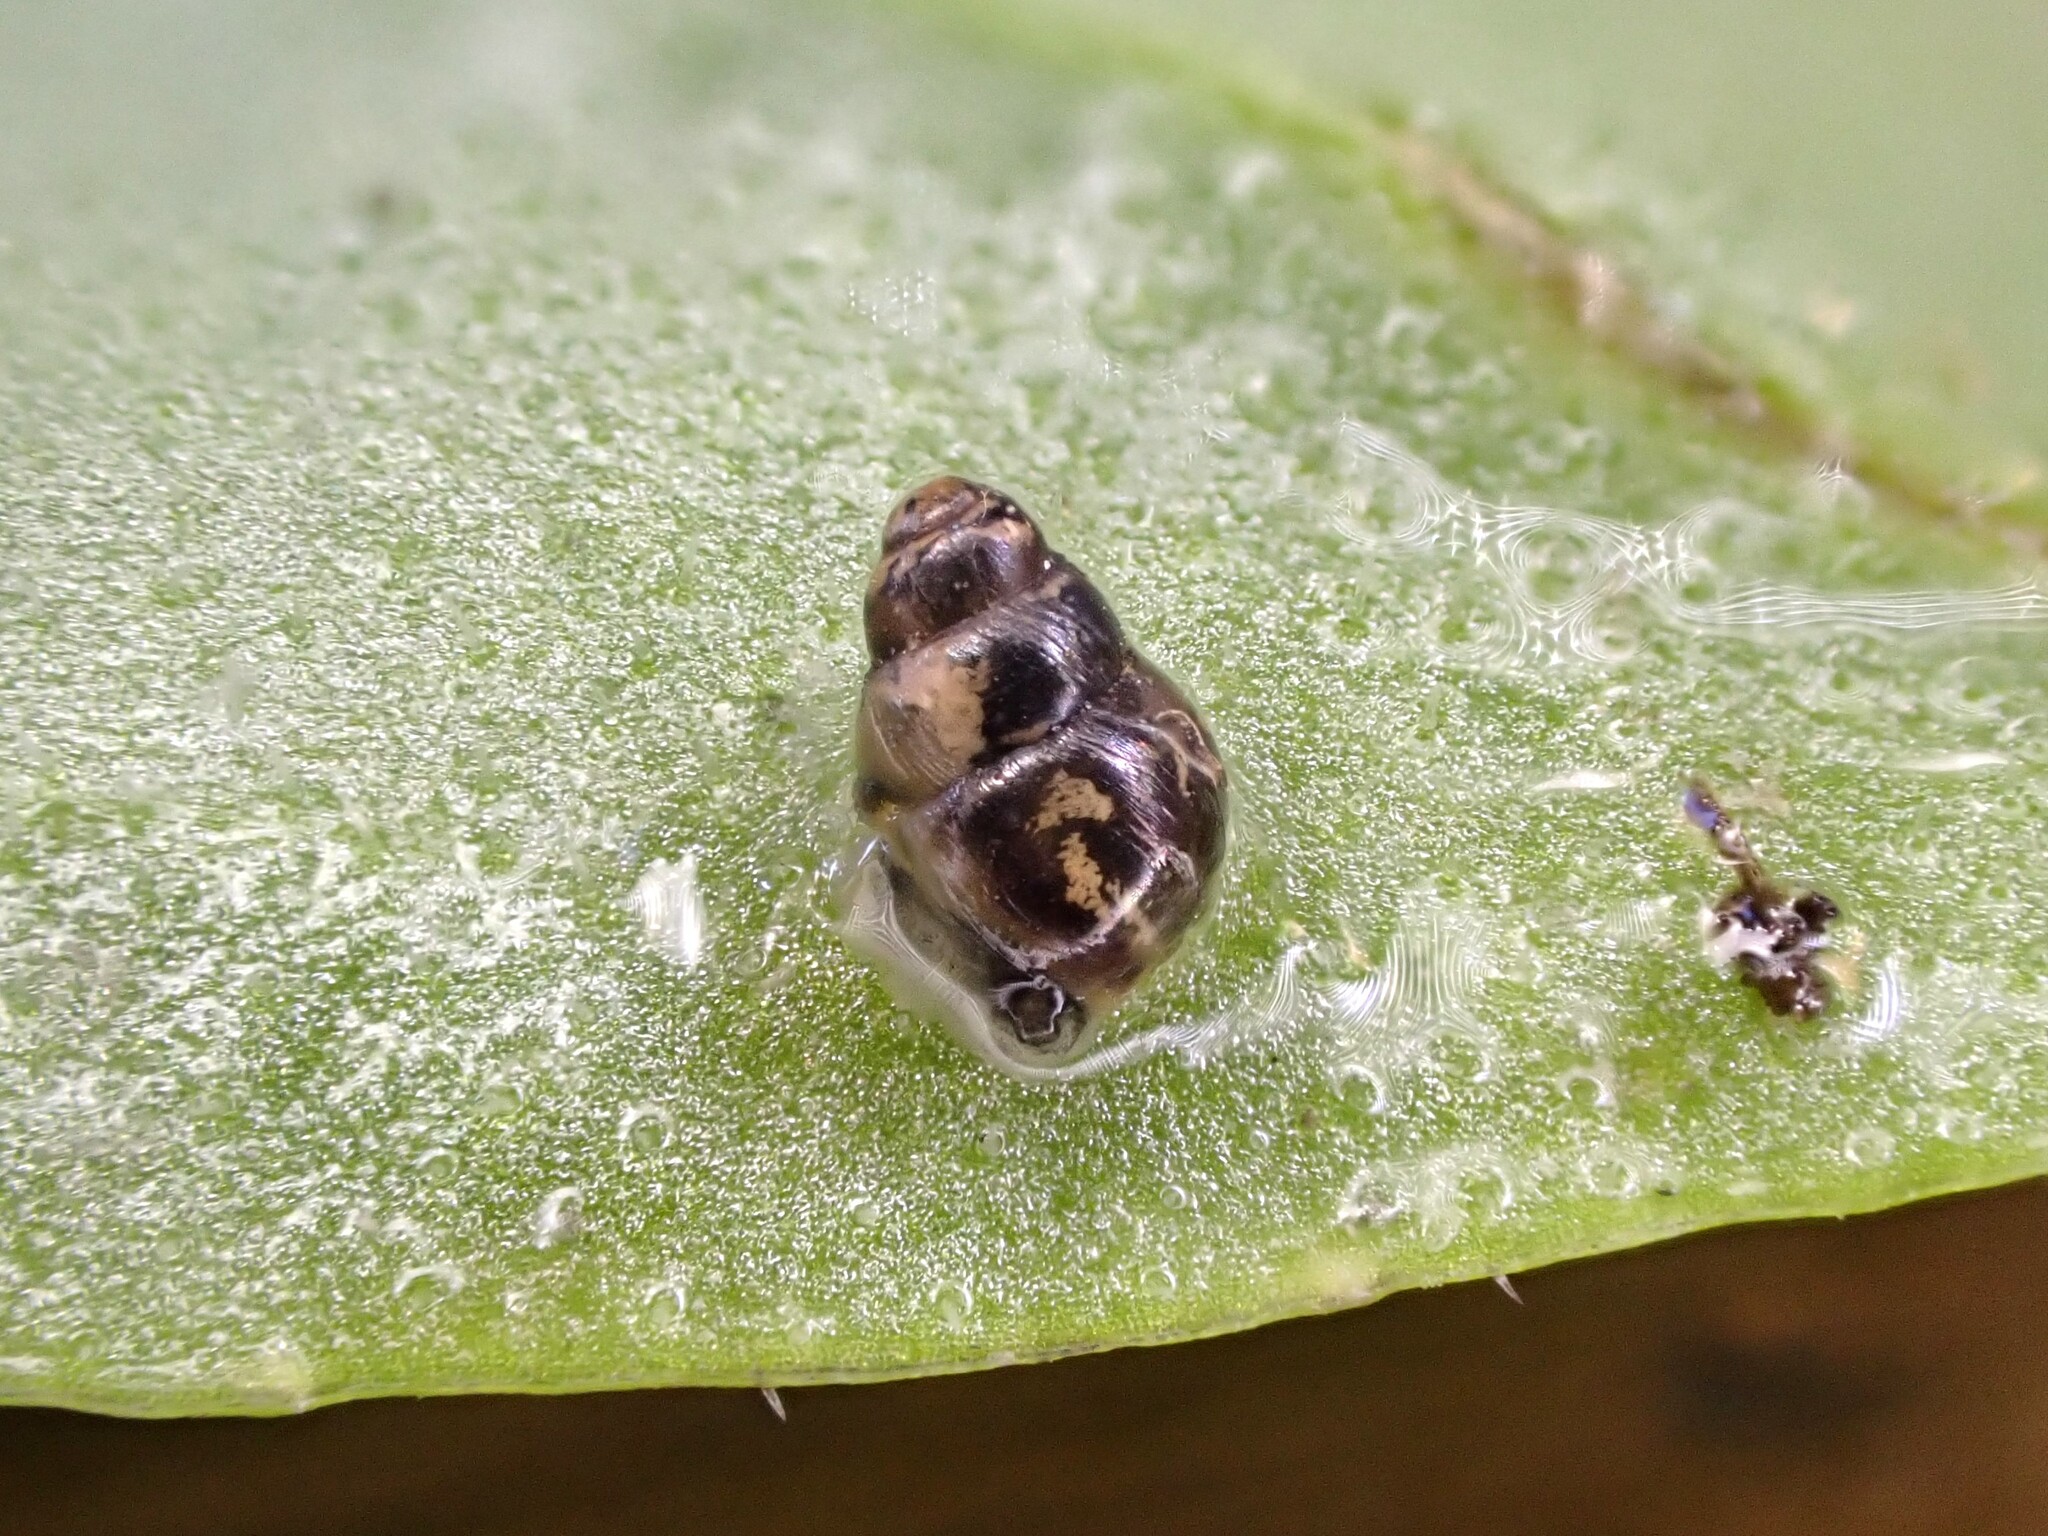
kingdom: Animalia
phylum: Mollusca
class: Gastropoda
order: Stylommatophora
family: Achatinellidae
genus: Tornatellinops
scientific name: Tornatellinops novoseelandicus
